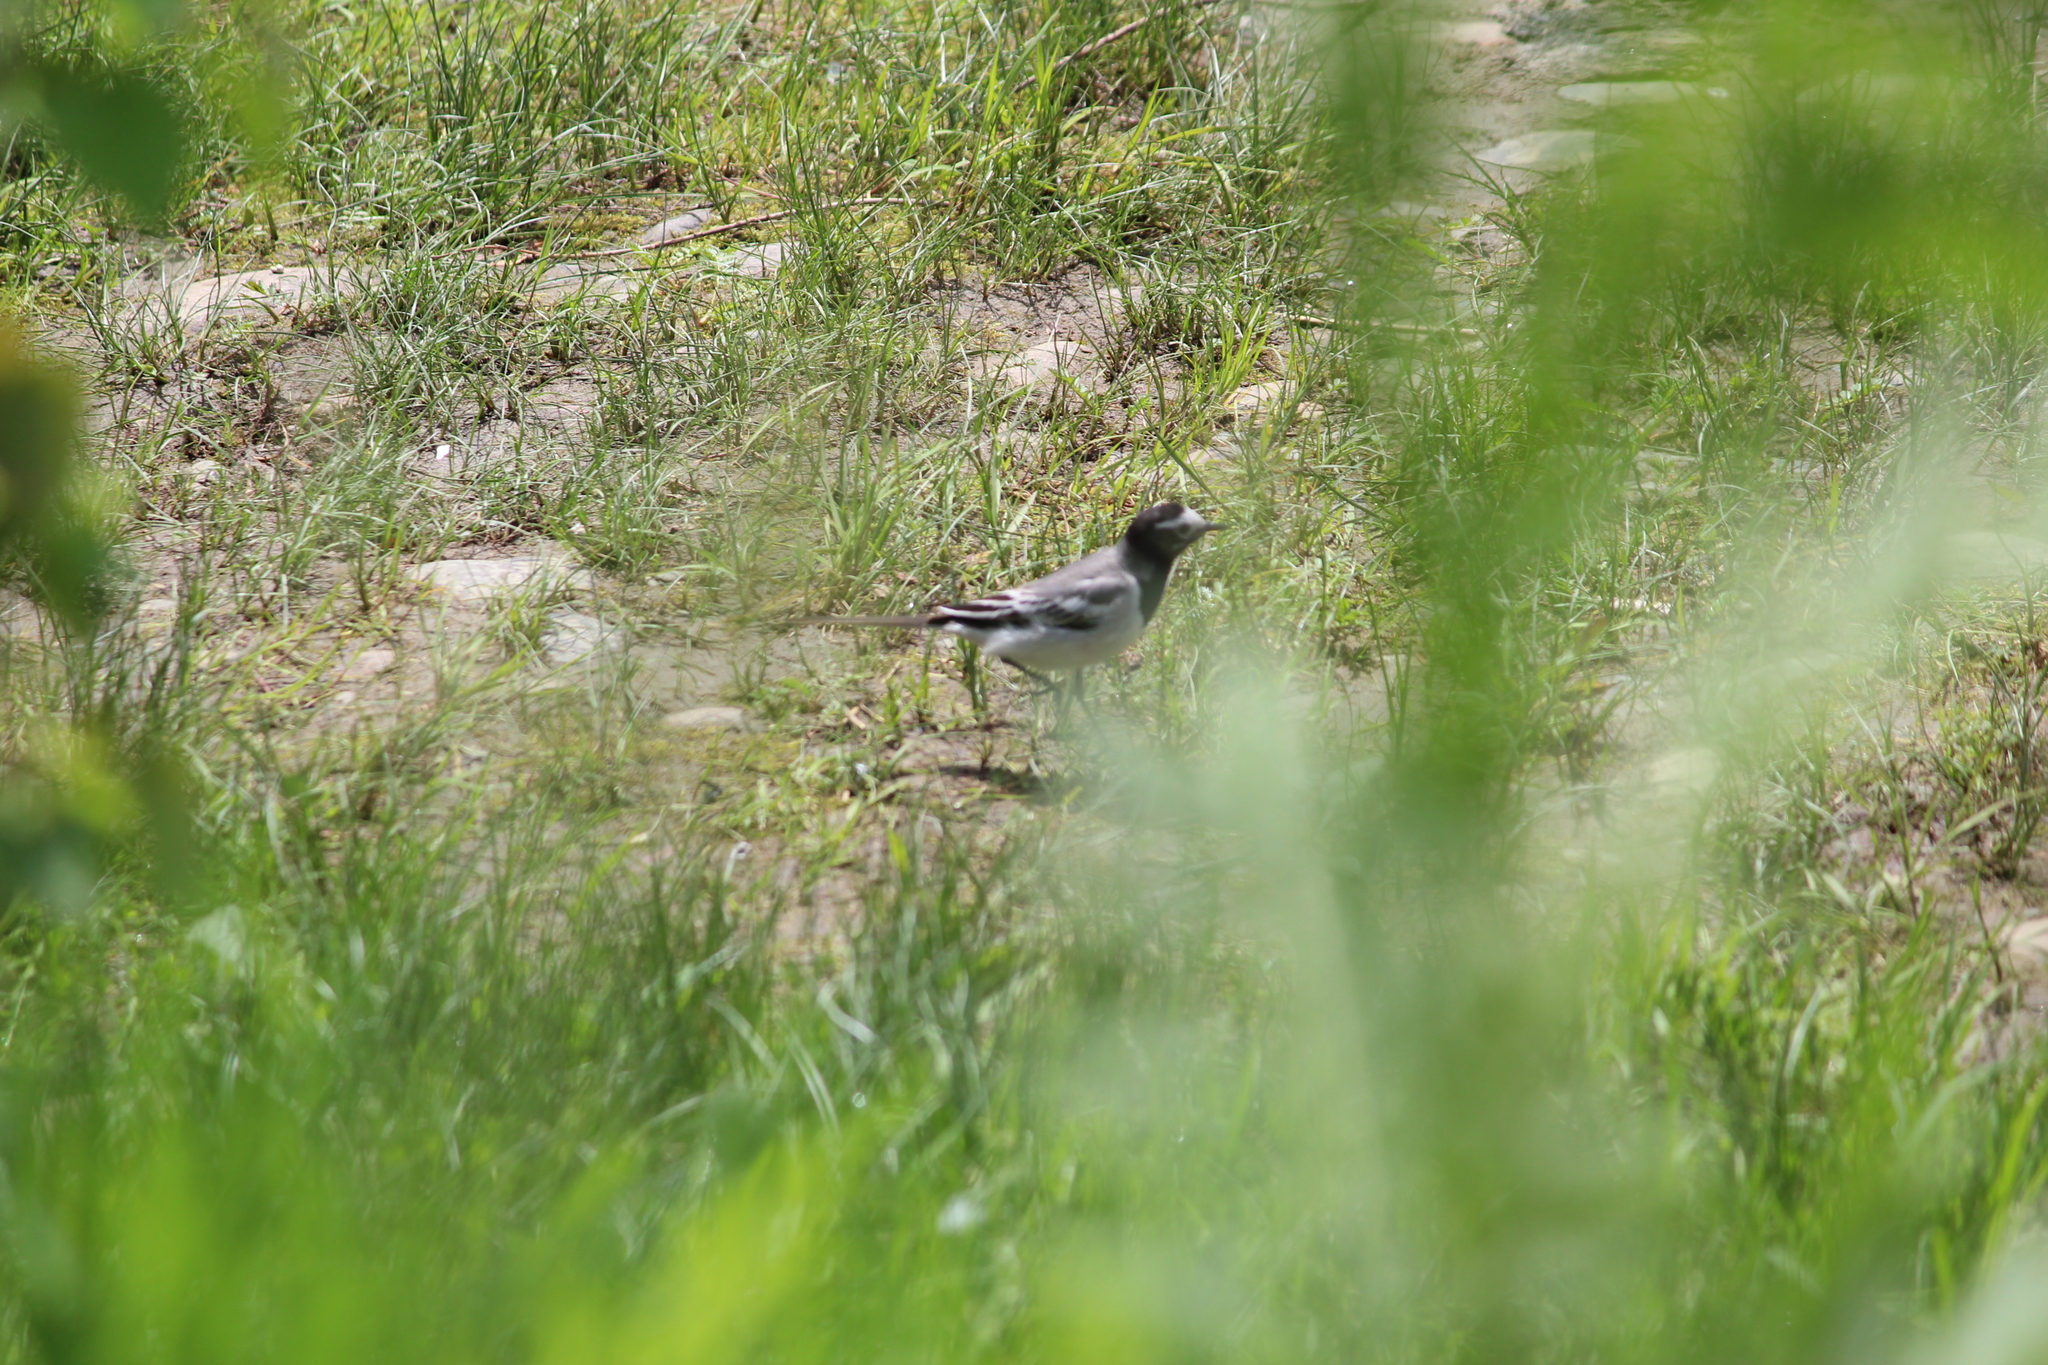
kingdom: Animalia
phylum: Chordata
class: Aves
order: Passeriformes
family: Motacillidae
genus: Motacilla
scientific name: Motacilla alba
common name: White wagtail
